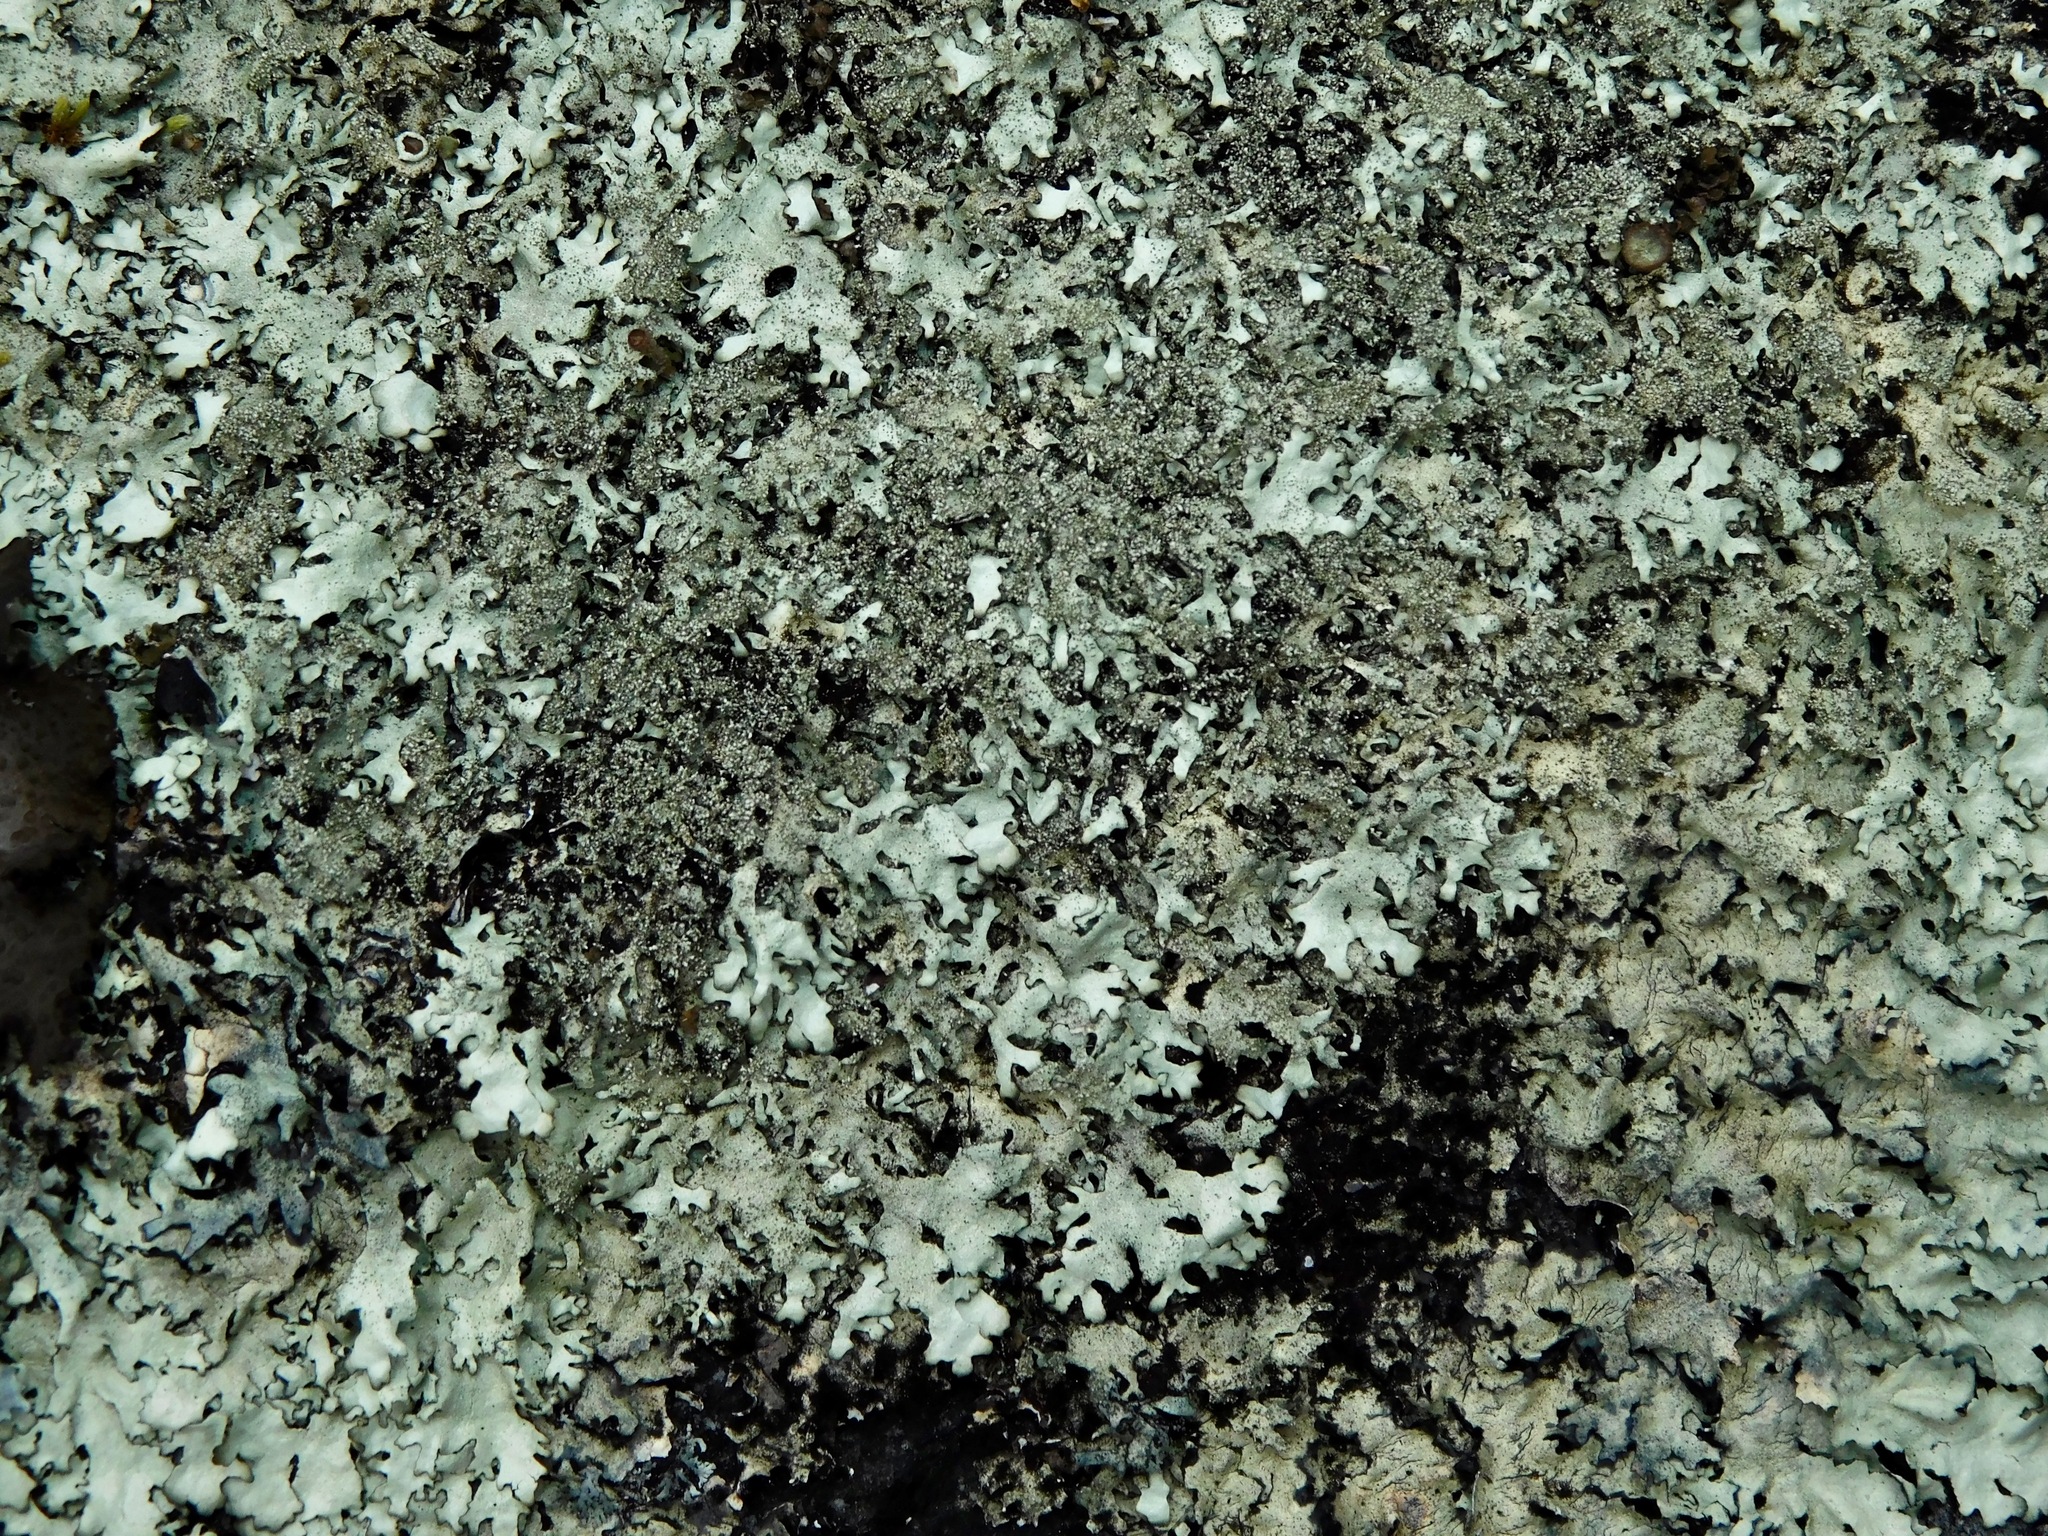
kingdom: Fungi
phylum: Ascomycota
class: Lecanoromycetes
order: Lecanorales
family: Parmeliaceae
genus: Xanthoparmelia
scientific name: Xanthoparmelia conspersa
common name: Peppered rock shield
